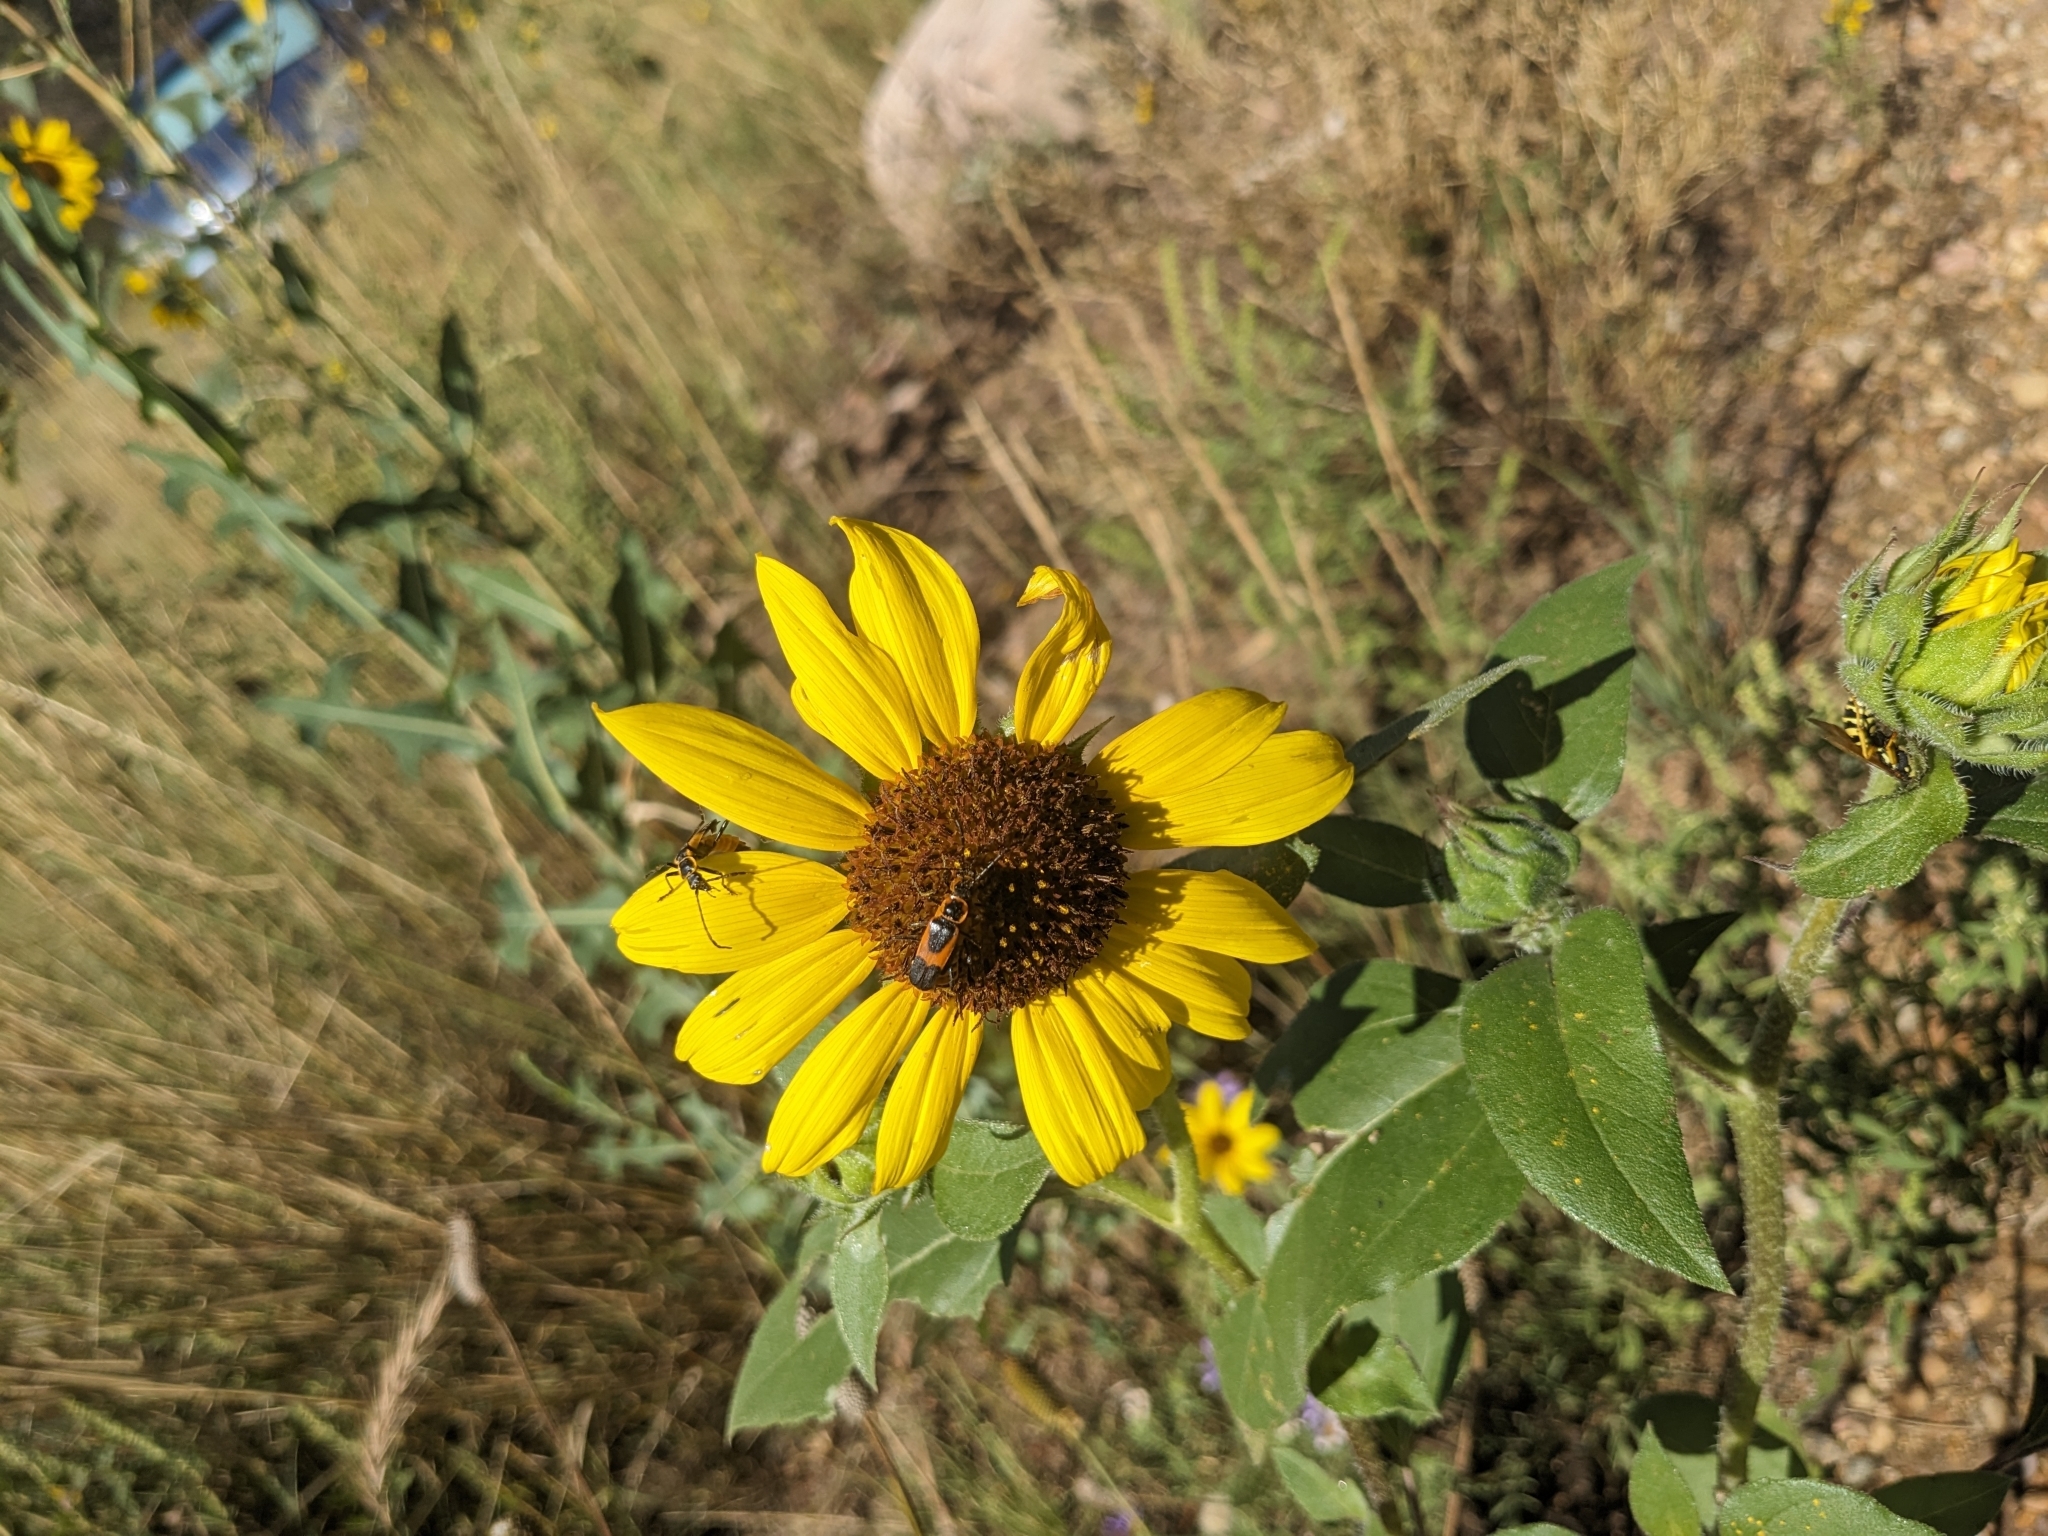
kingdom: Animalia
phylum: Arthropoda
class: Insecta
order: Coleoptera
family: Cantharidae
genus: Chauliognathus
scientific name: Chauliognathus basalis
